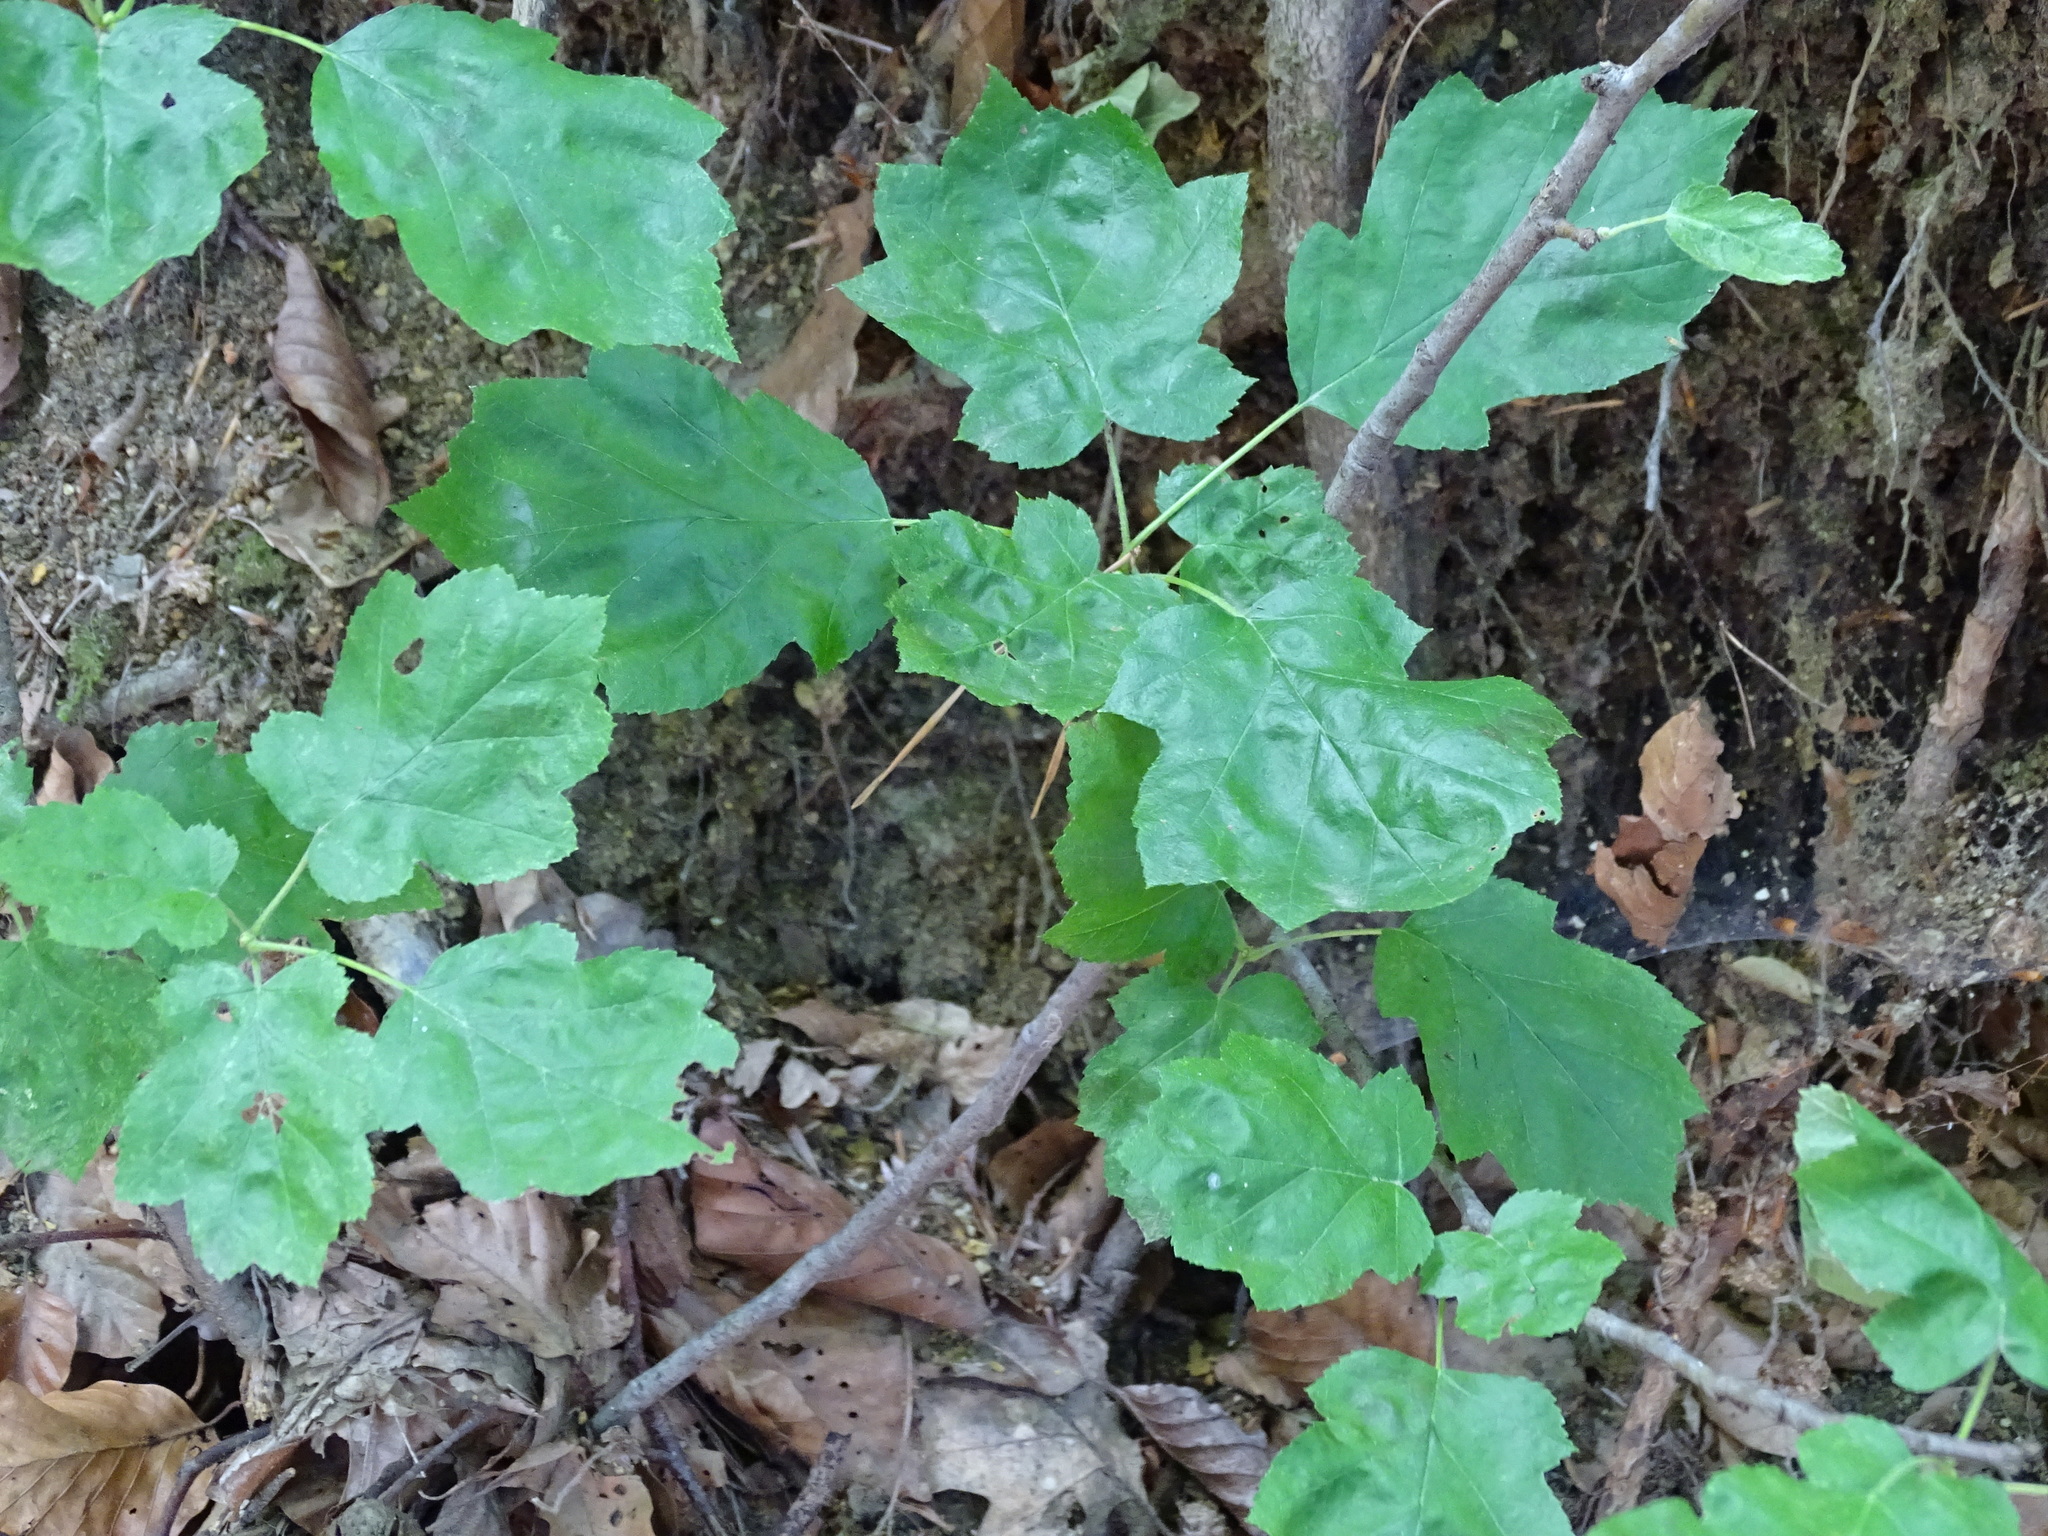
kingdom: Plantae
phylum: Tracheophyta
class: Magnoliopsida
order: Rosales
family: Rosaceae
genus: Torminalis
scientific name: Torminalis glaberrima
